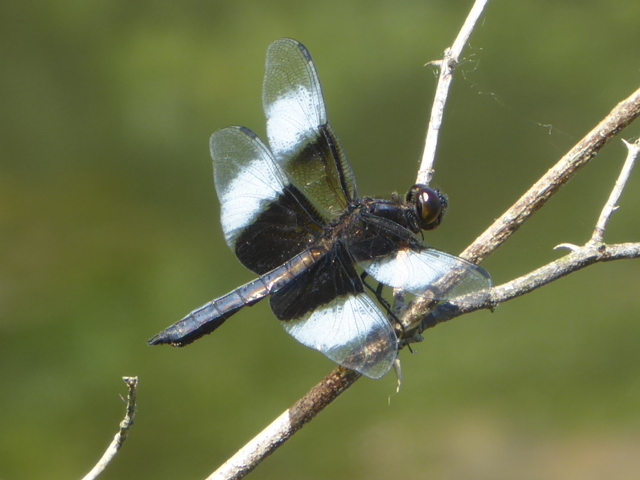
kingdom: Animalia
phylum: Arthropoda
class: Insecta
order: Odonata
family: Libellulidae
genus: Libellula
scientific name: Libellula luctuosa
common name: Widow skimmer
